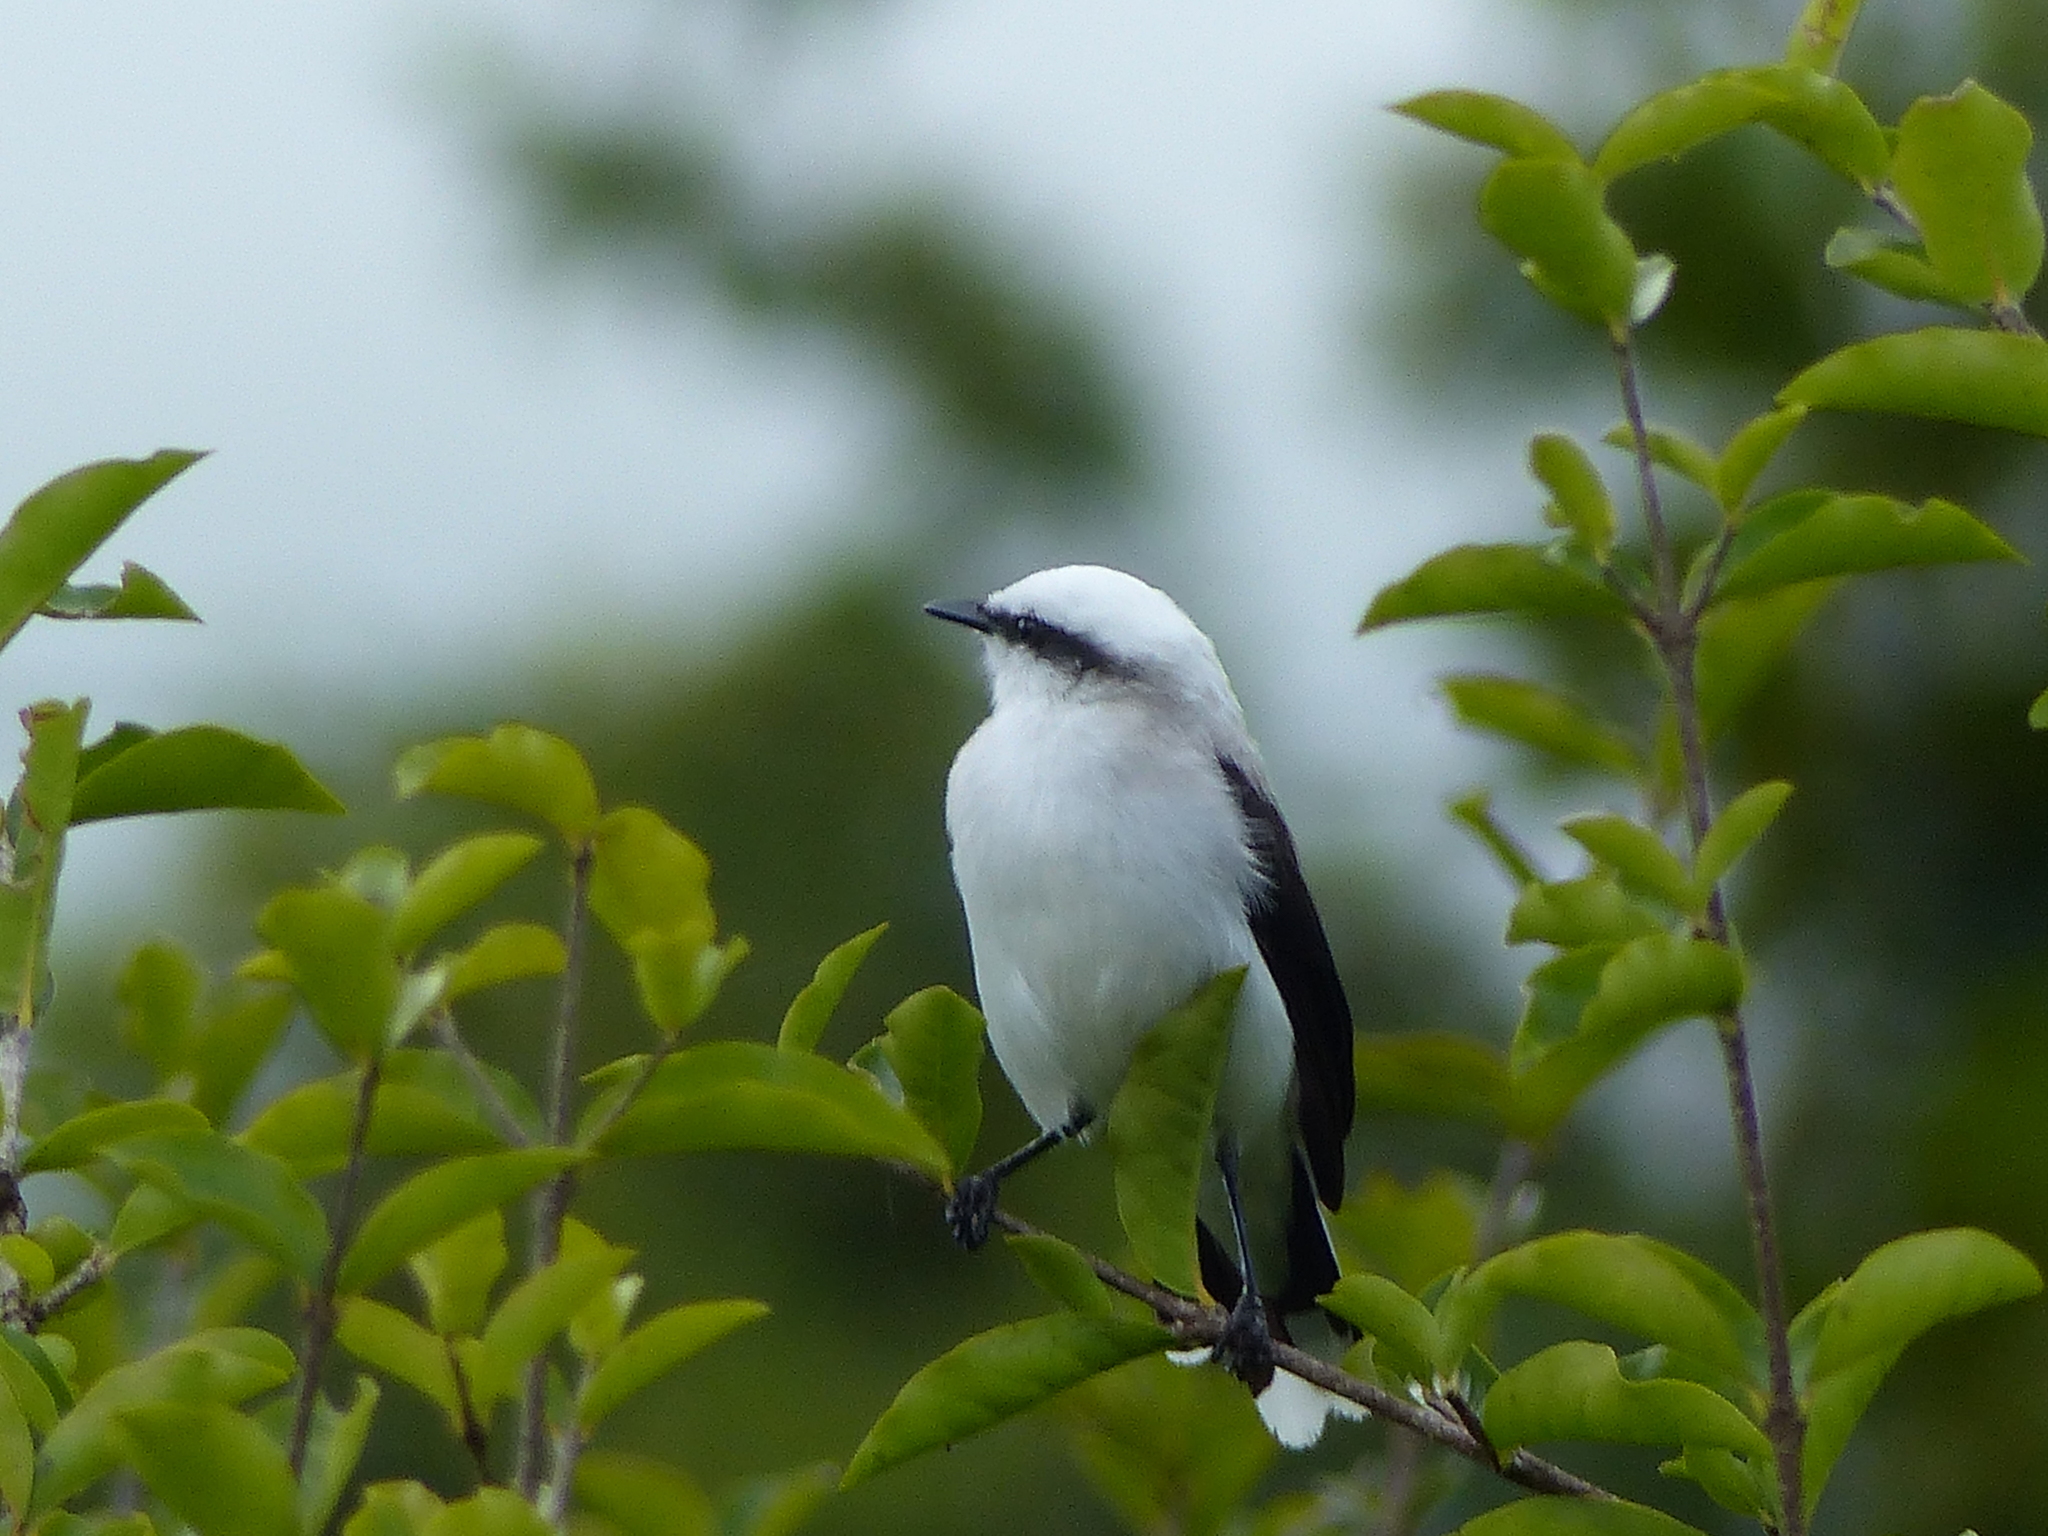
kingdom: Animalia
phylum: Chordata
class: Aves
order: Passeriformes
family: Tyrannidae
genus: Fluvicola
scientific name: Fluvicola nengeta
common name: Masked water tyrant
